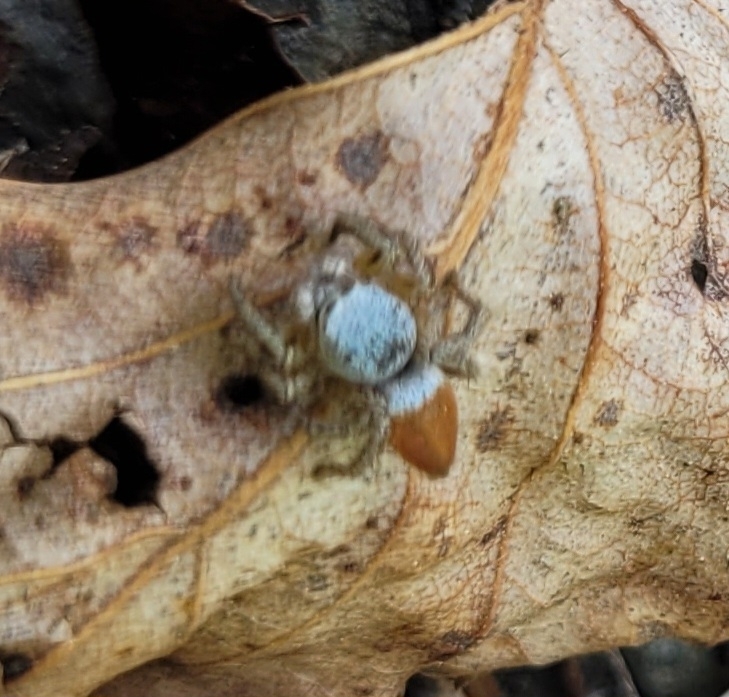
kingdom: Animalia
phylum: Arthropoda
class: Arachnida
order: Araneae
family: Salticidae
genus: Habronattus
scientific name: Habronattus decorus
